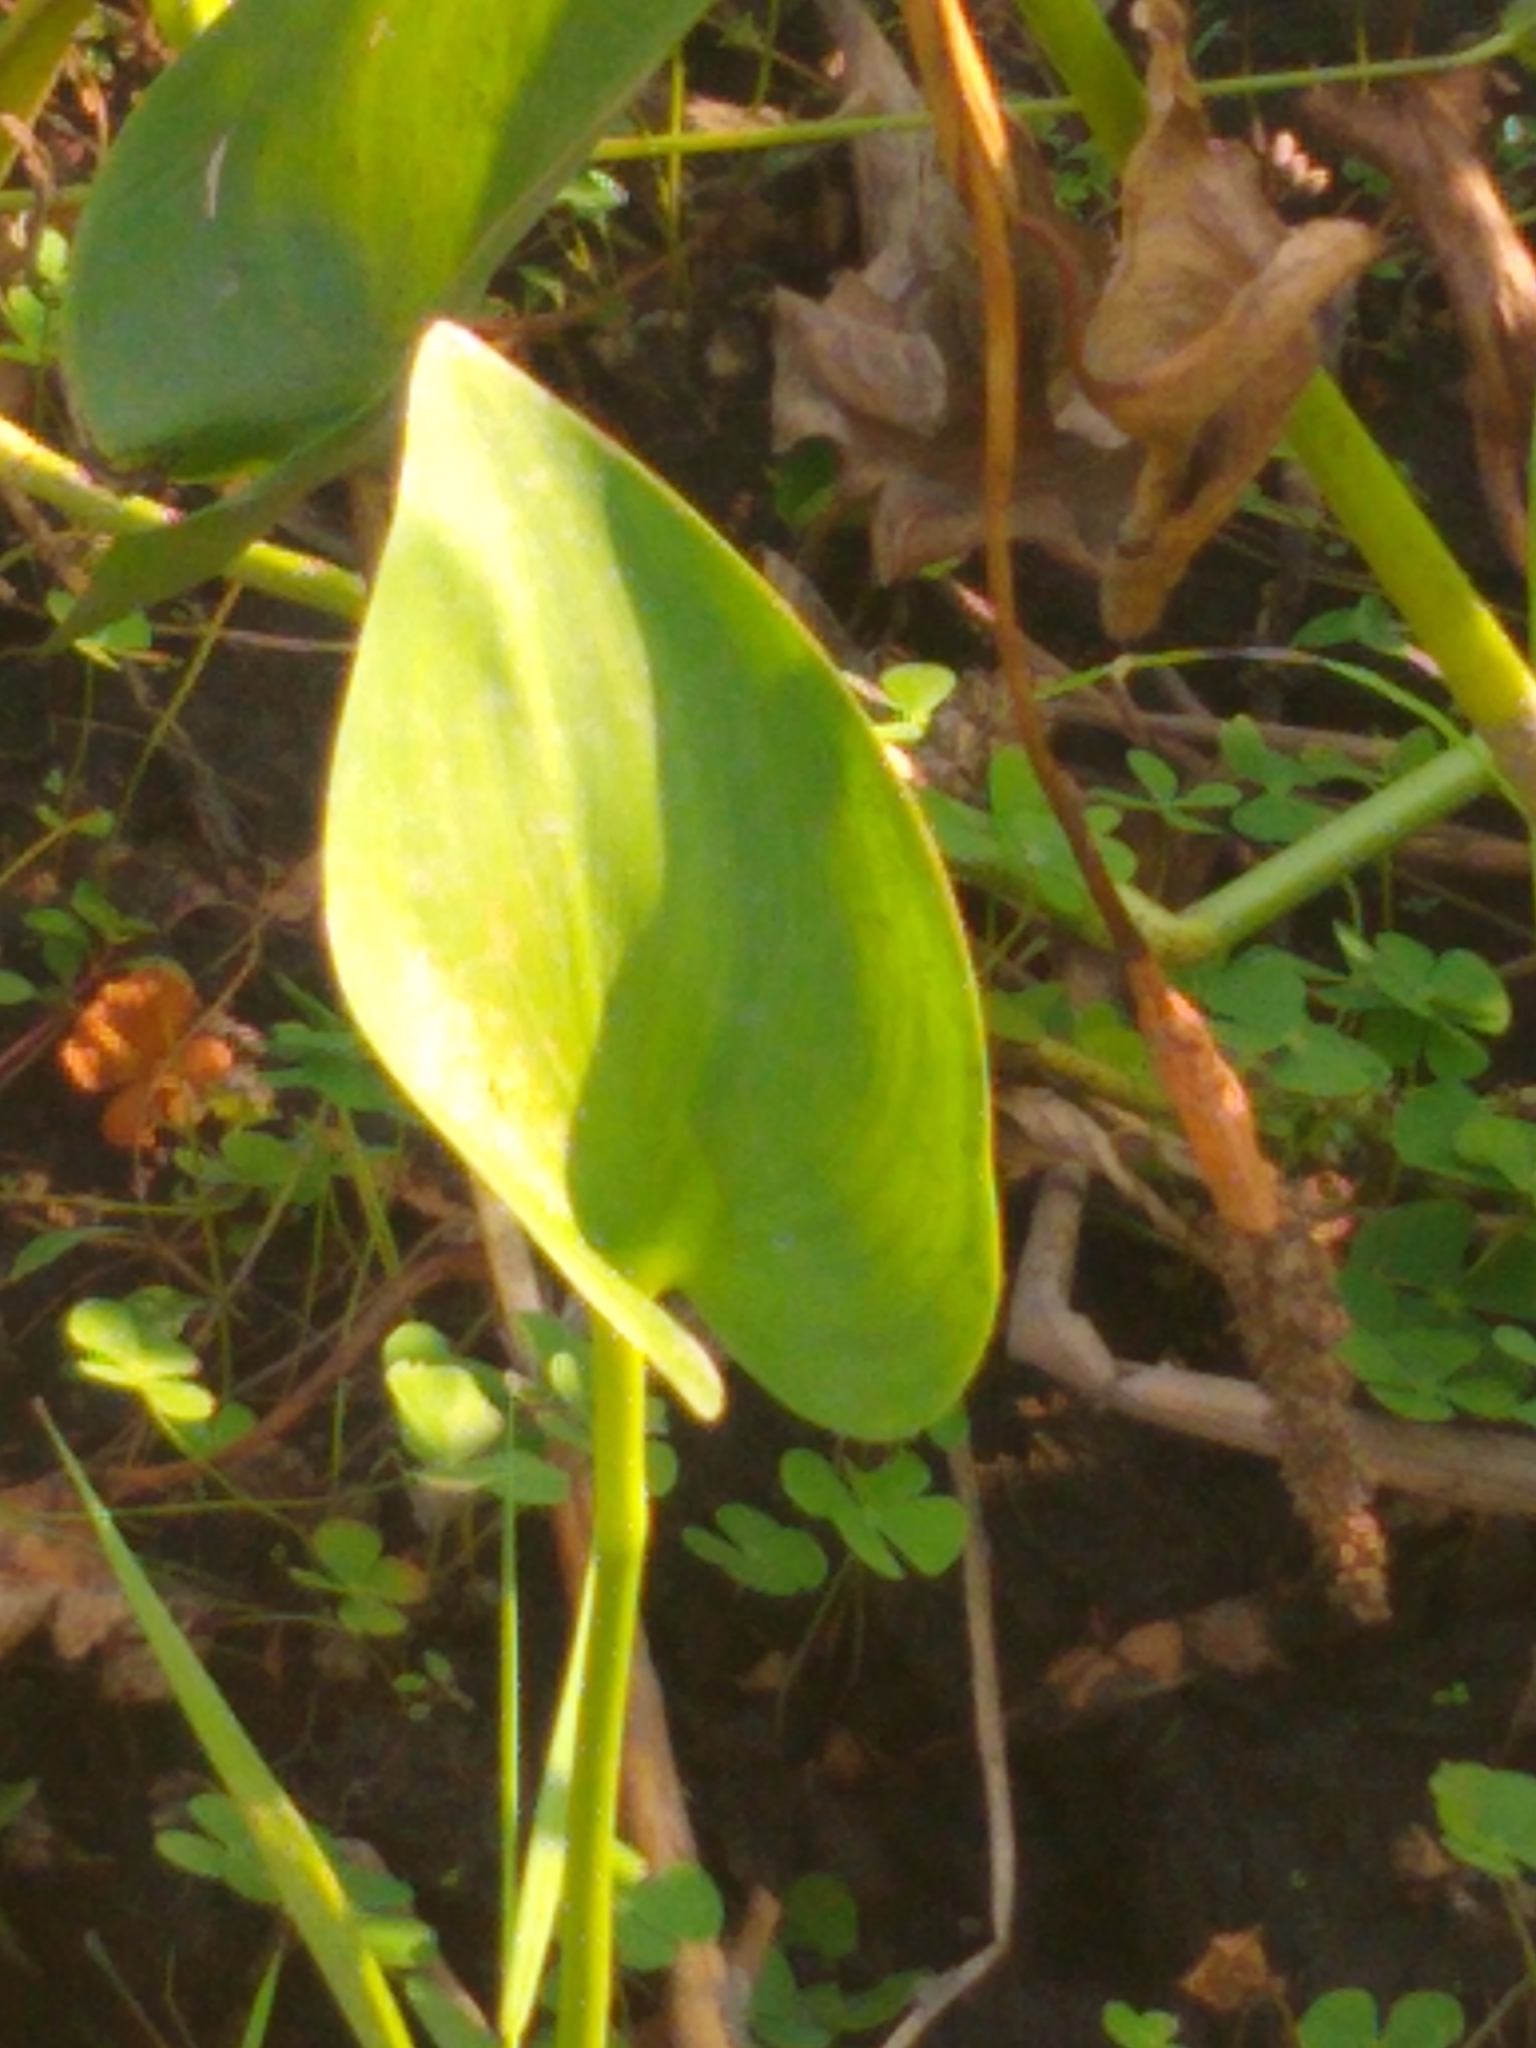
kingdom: Plantae
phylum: Tracheophyta
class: Liliopsida
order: Commelinales
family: Pontederiaceae
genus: Pontederia
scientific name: Pontederia cordata
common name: Pickerelweed
